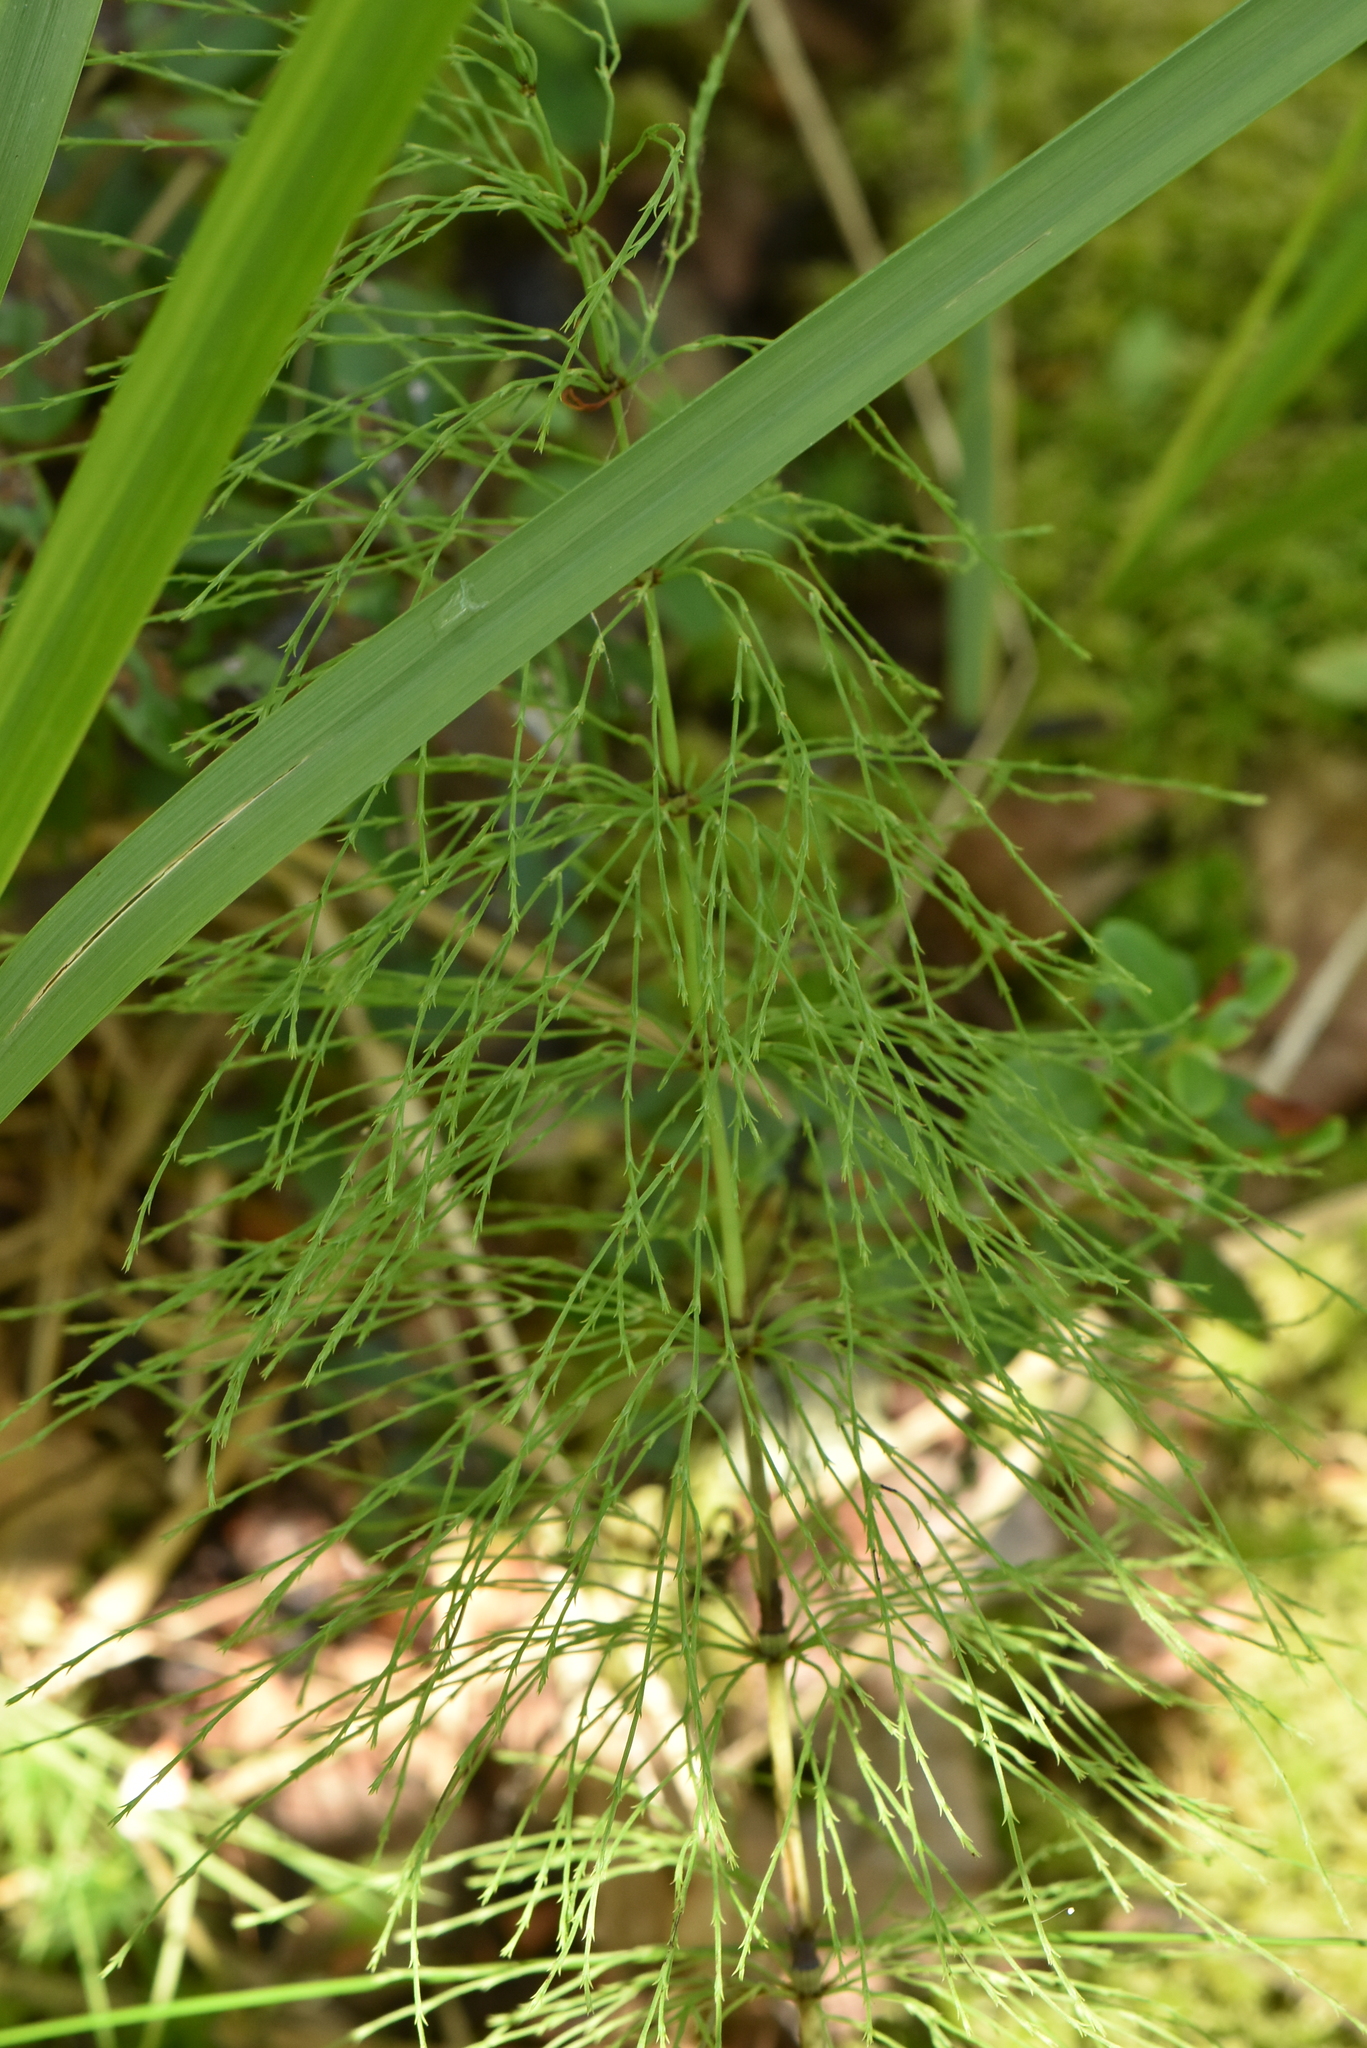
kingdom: Plantae
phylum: Tracheophyta
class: Polypodiopsida
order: Equisetales
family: Equisetaceae
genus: Equisetum
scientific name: Equisetum sylvaticum
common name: Wood horsetail
